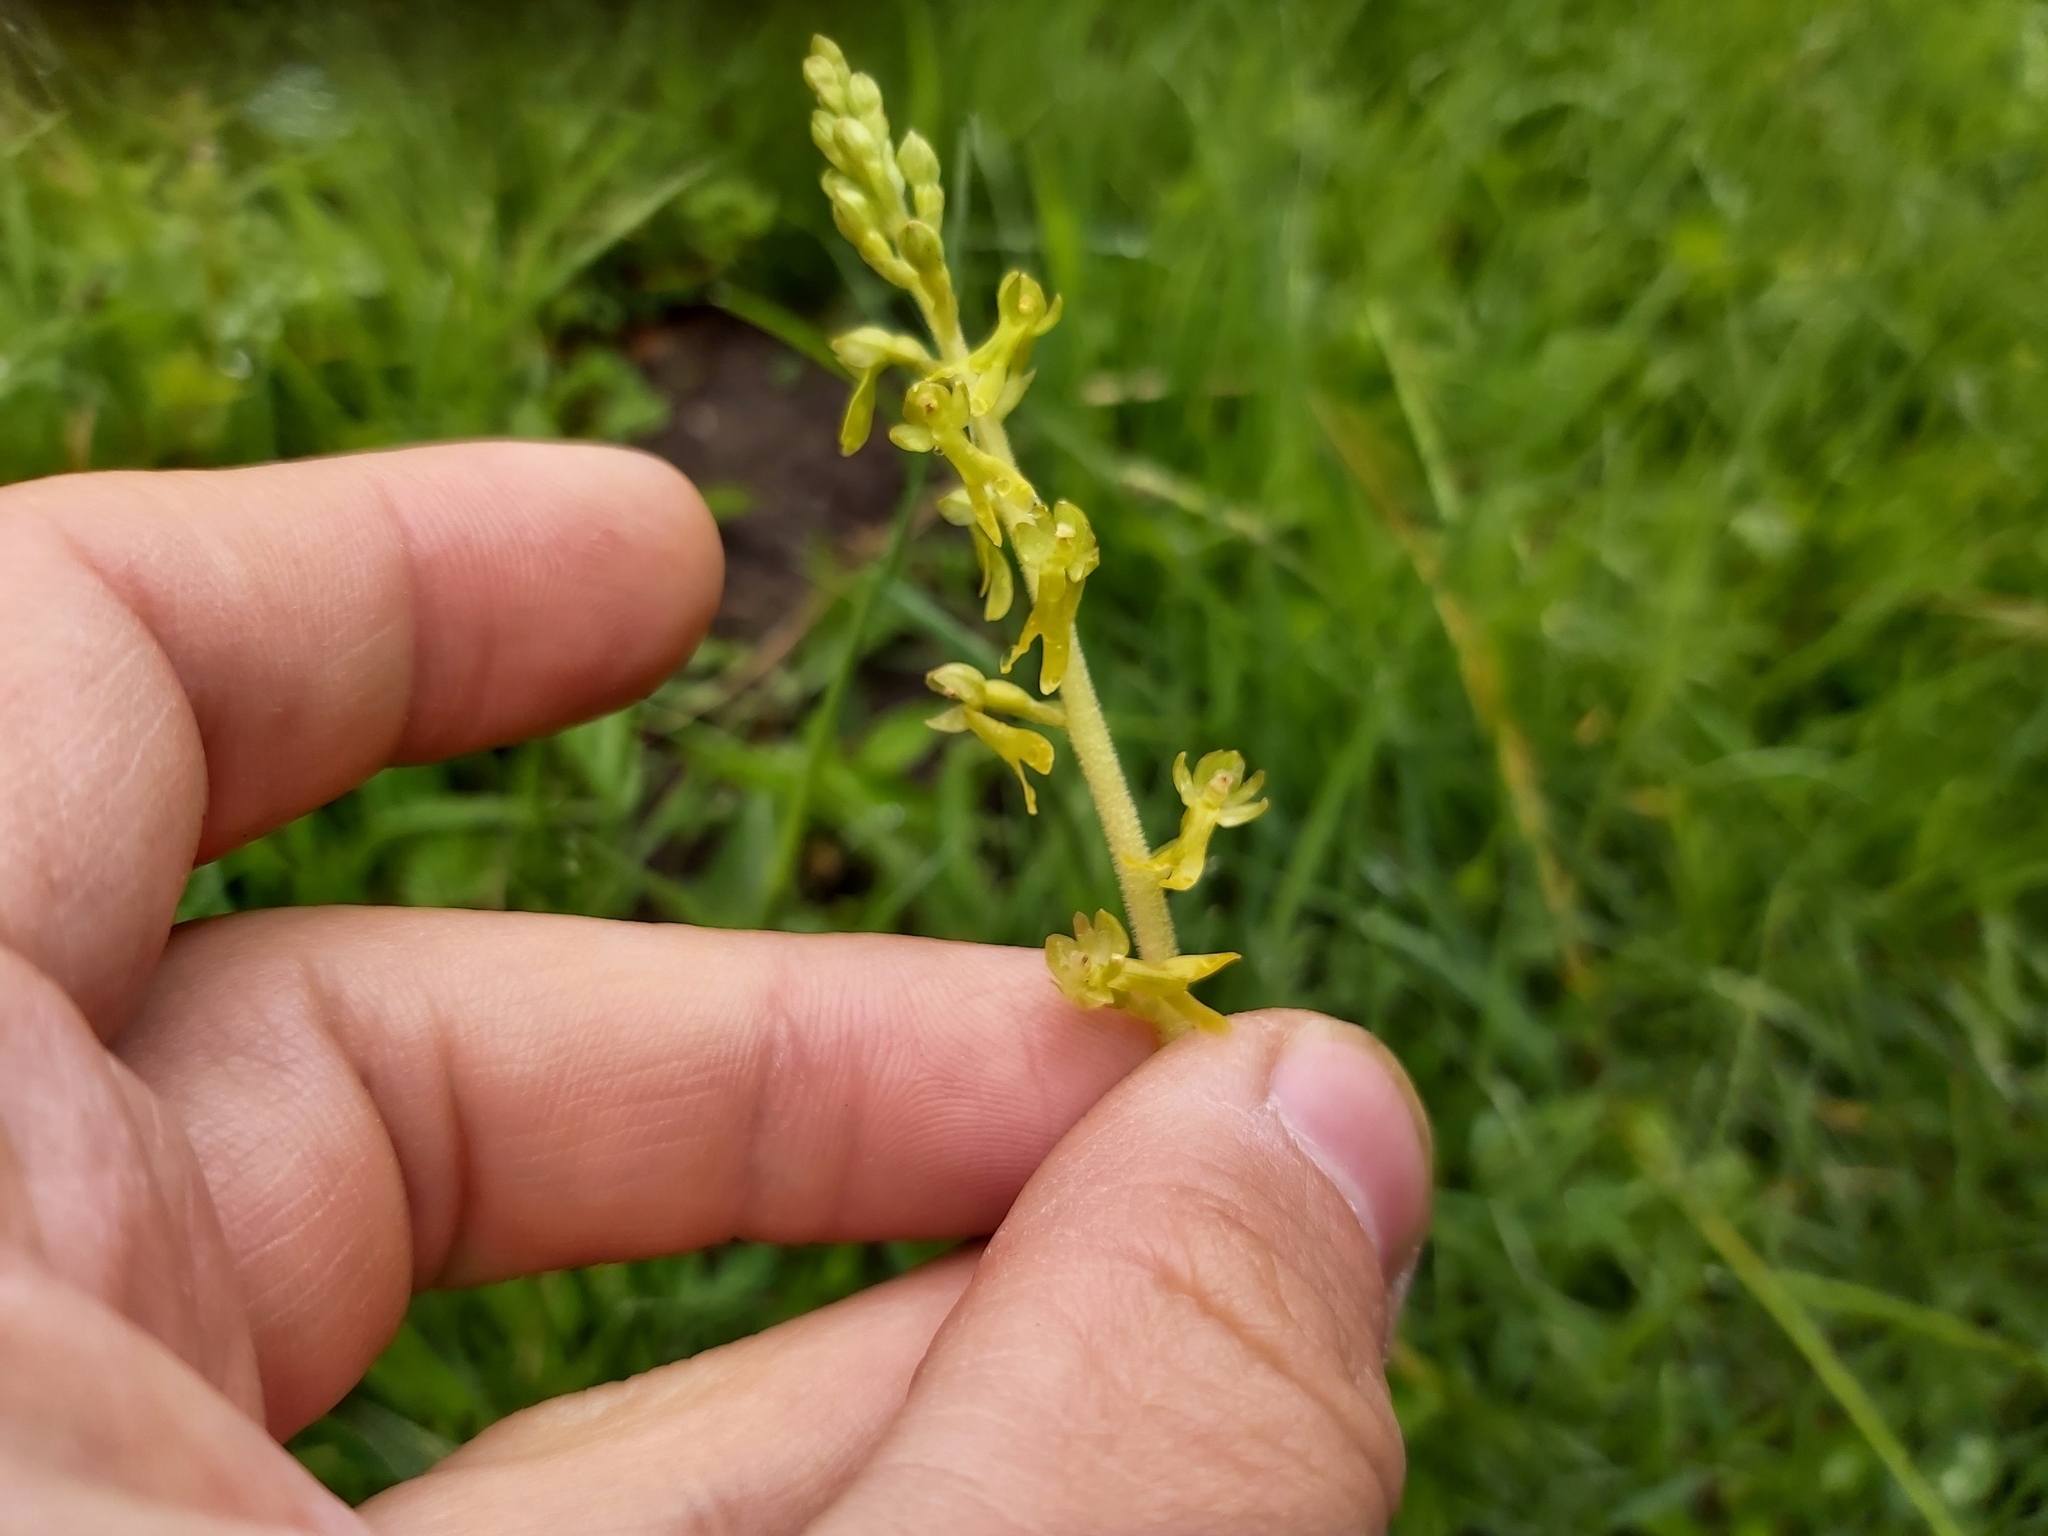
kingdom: Plantae
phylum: Tracheophyta
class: Liliopsida
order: Asparagales
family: Orchidaceae
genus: Neottia
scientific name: Neottia ovata
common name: Common twayblade
